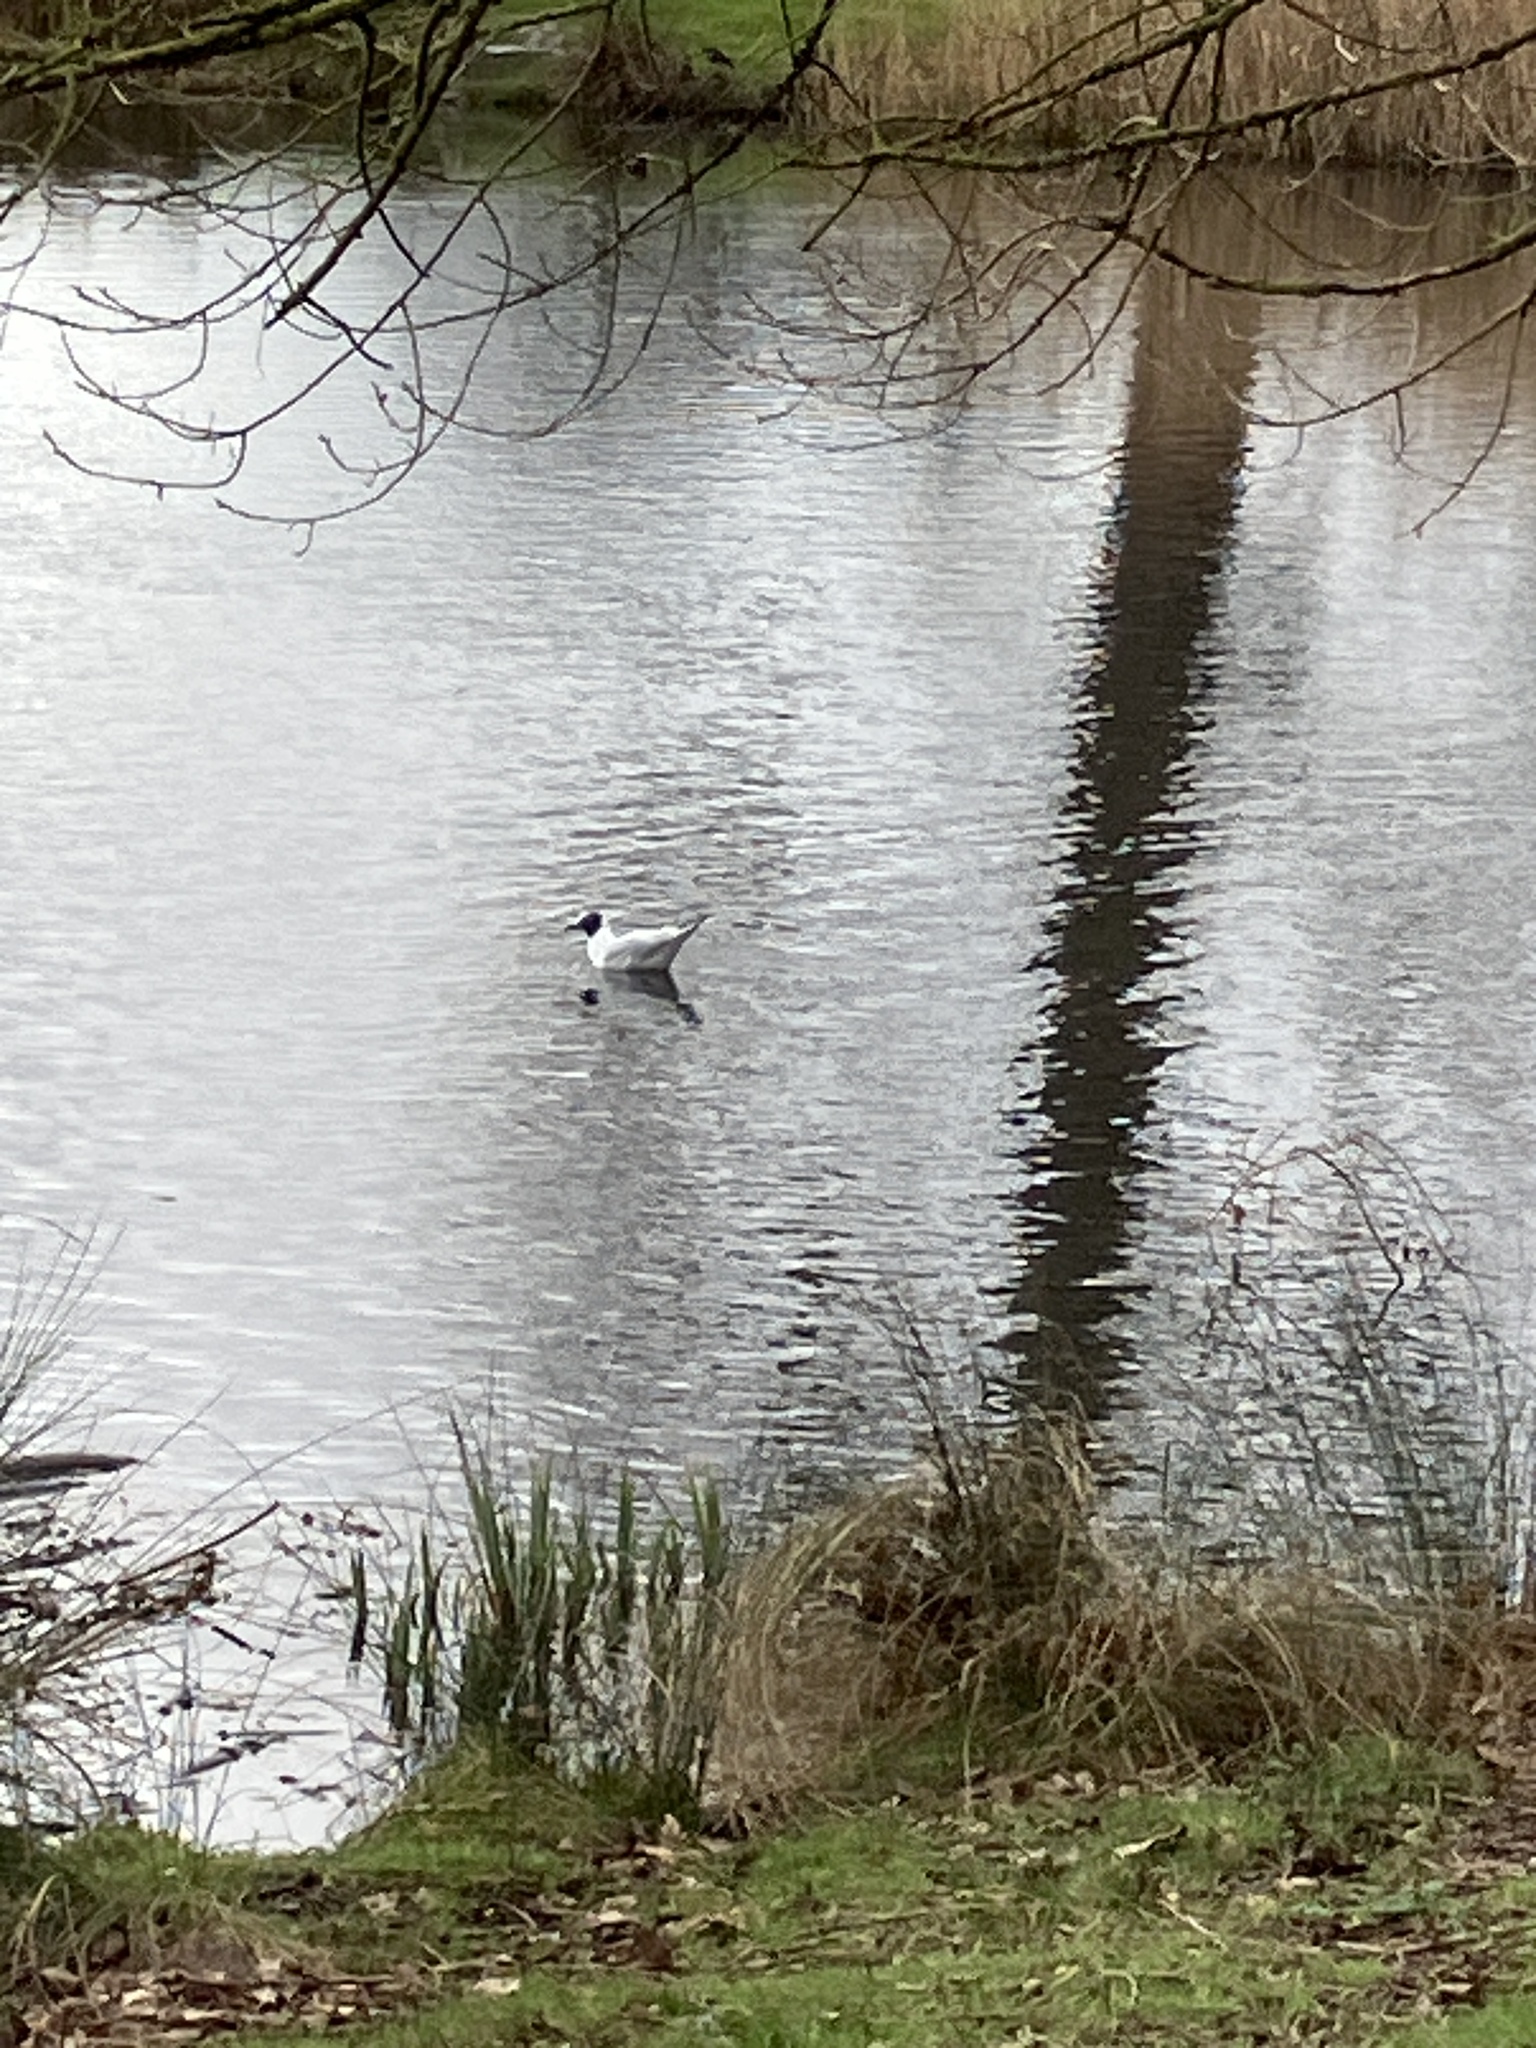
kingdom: Animalia
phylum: Chordata
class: Aves
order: Charadriiformes
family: Laridae
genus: Chroicocephalus
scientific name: Chroicocephalus ridibundus
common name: Black-headed gull
